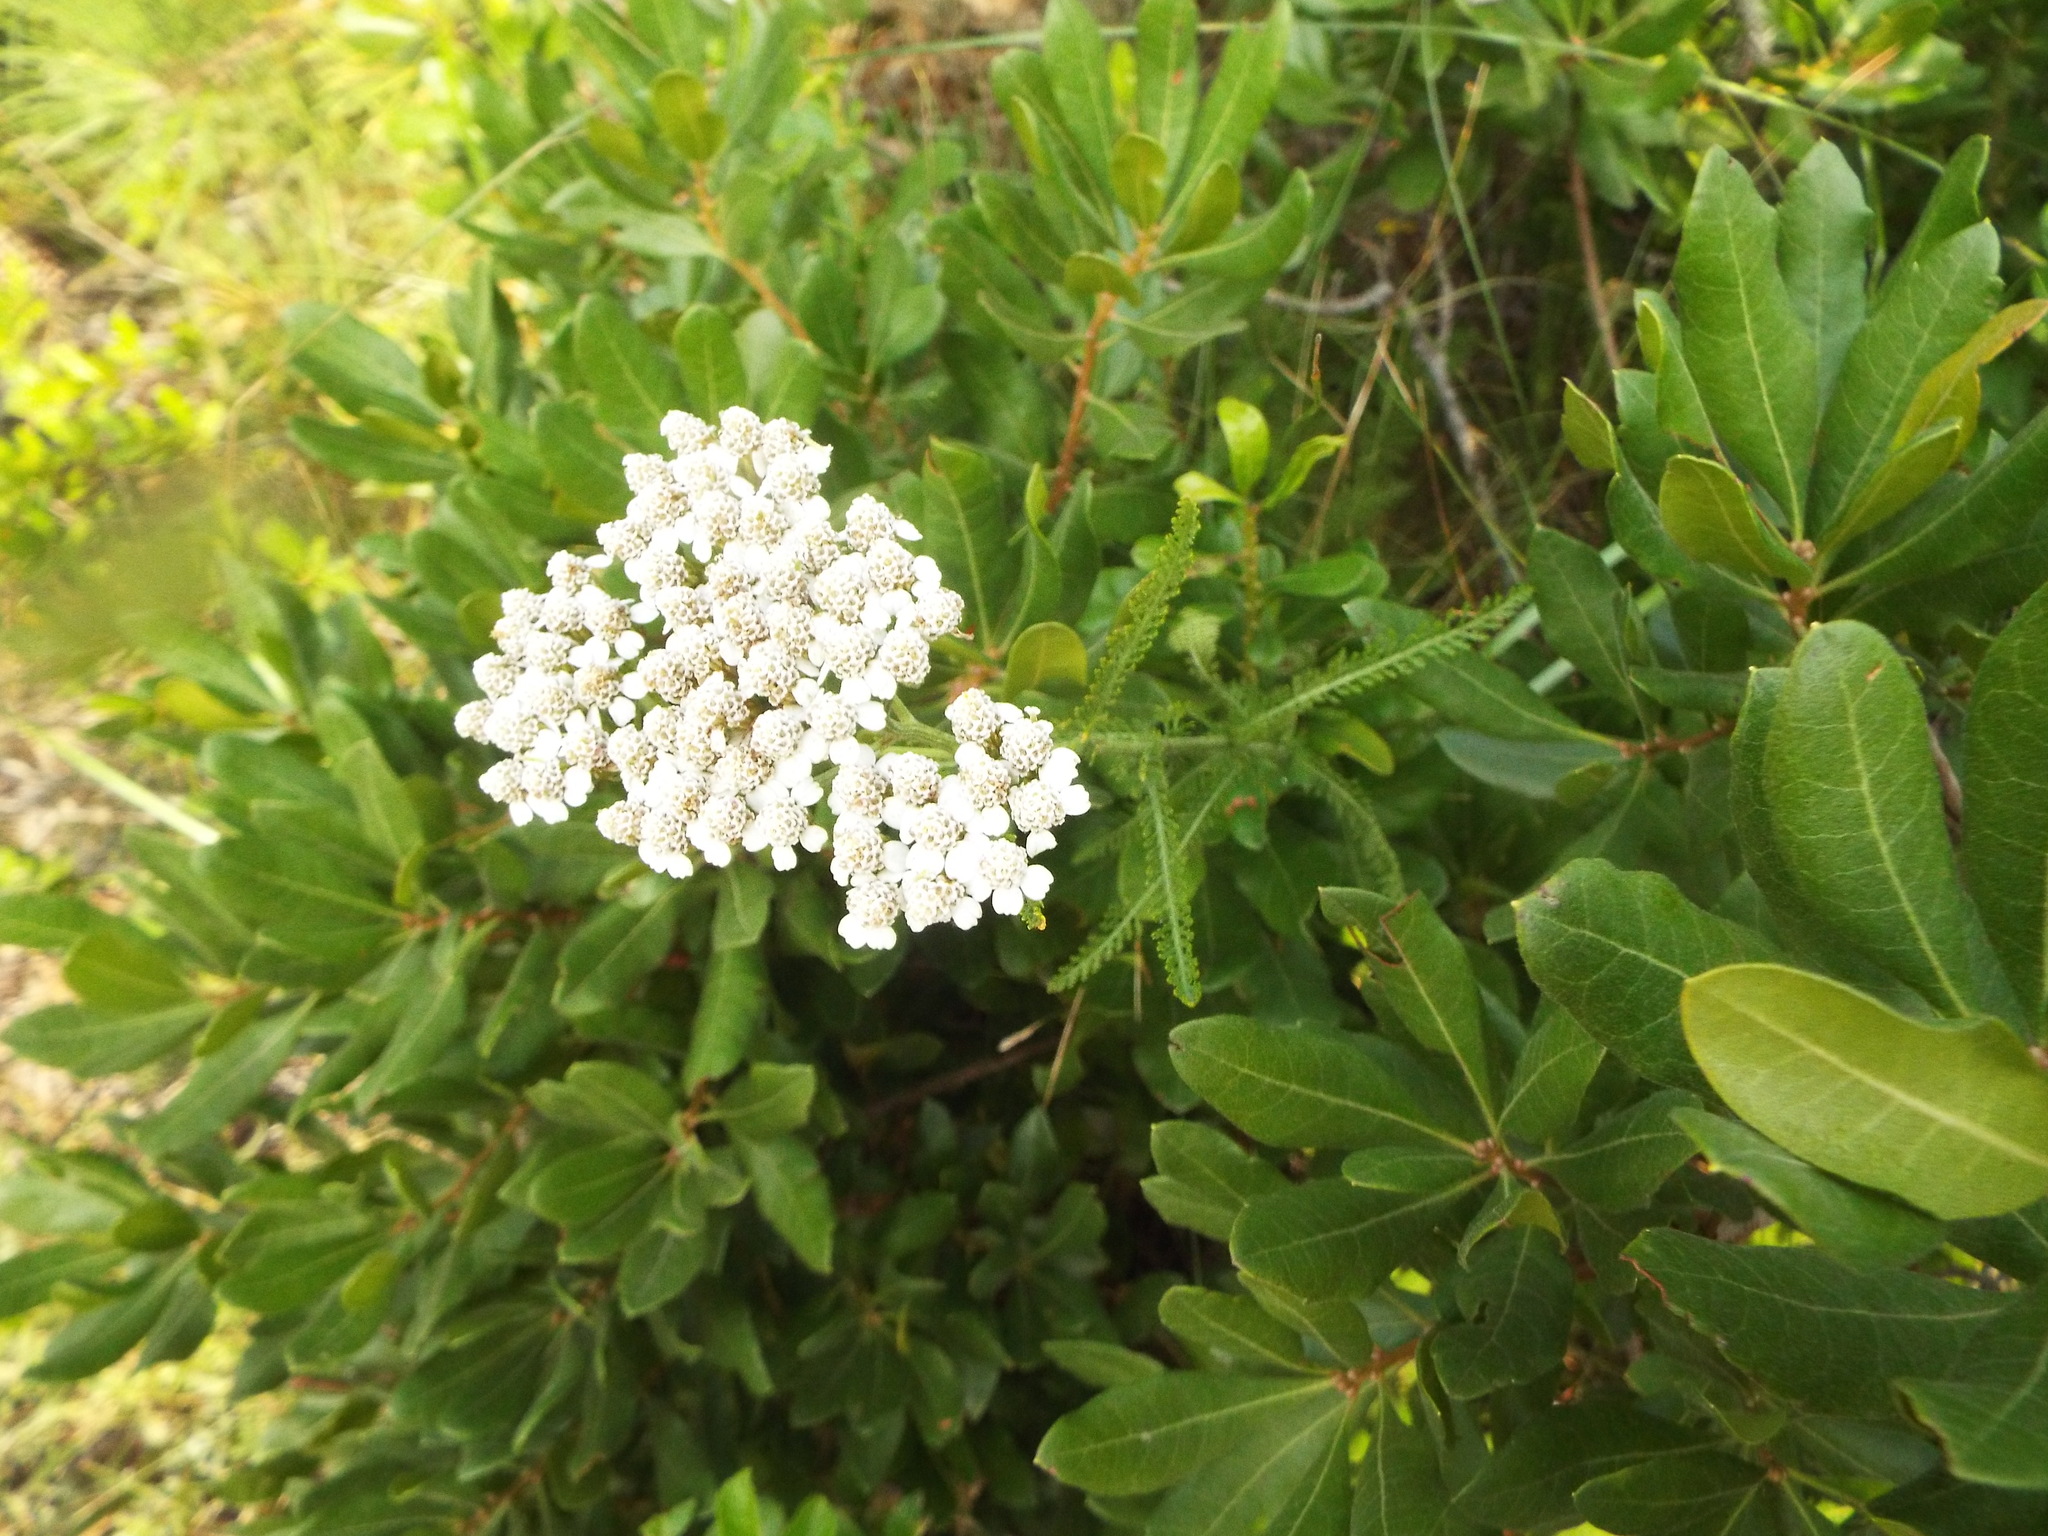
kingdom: Plantae
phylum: Tracheophyta
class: Magnoliopsida
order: Asterales
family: Asteraceae
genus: Achillea
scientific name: Achillea millefolium
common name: Yarrow
